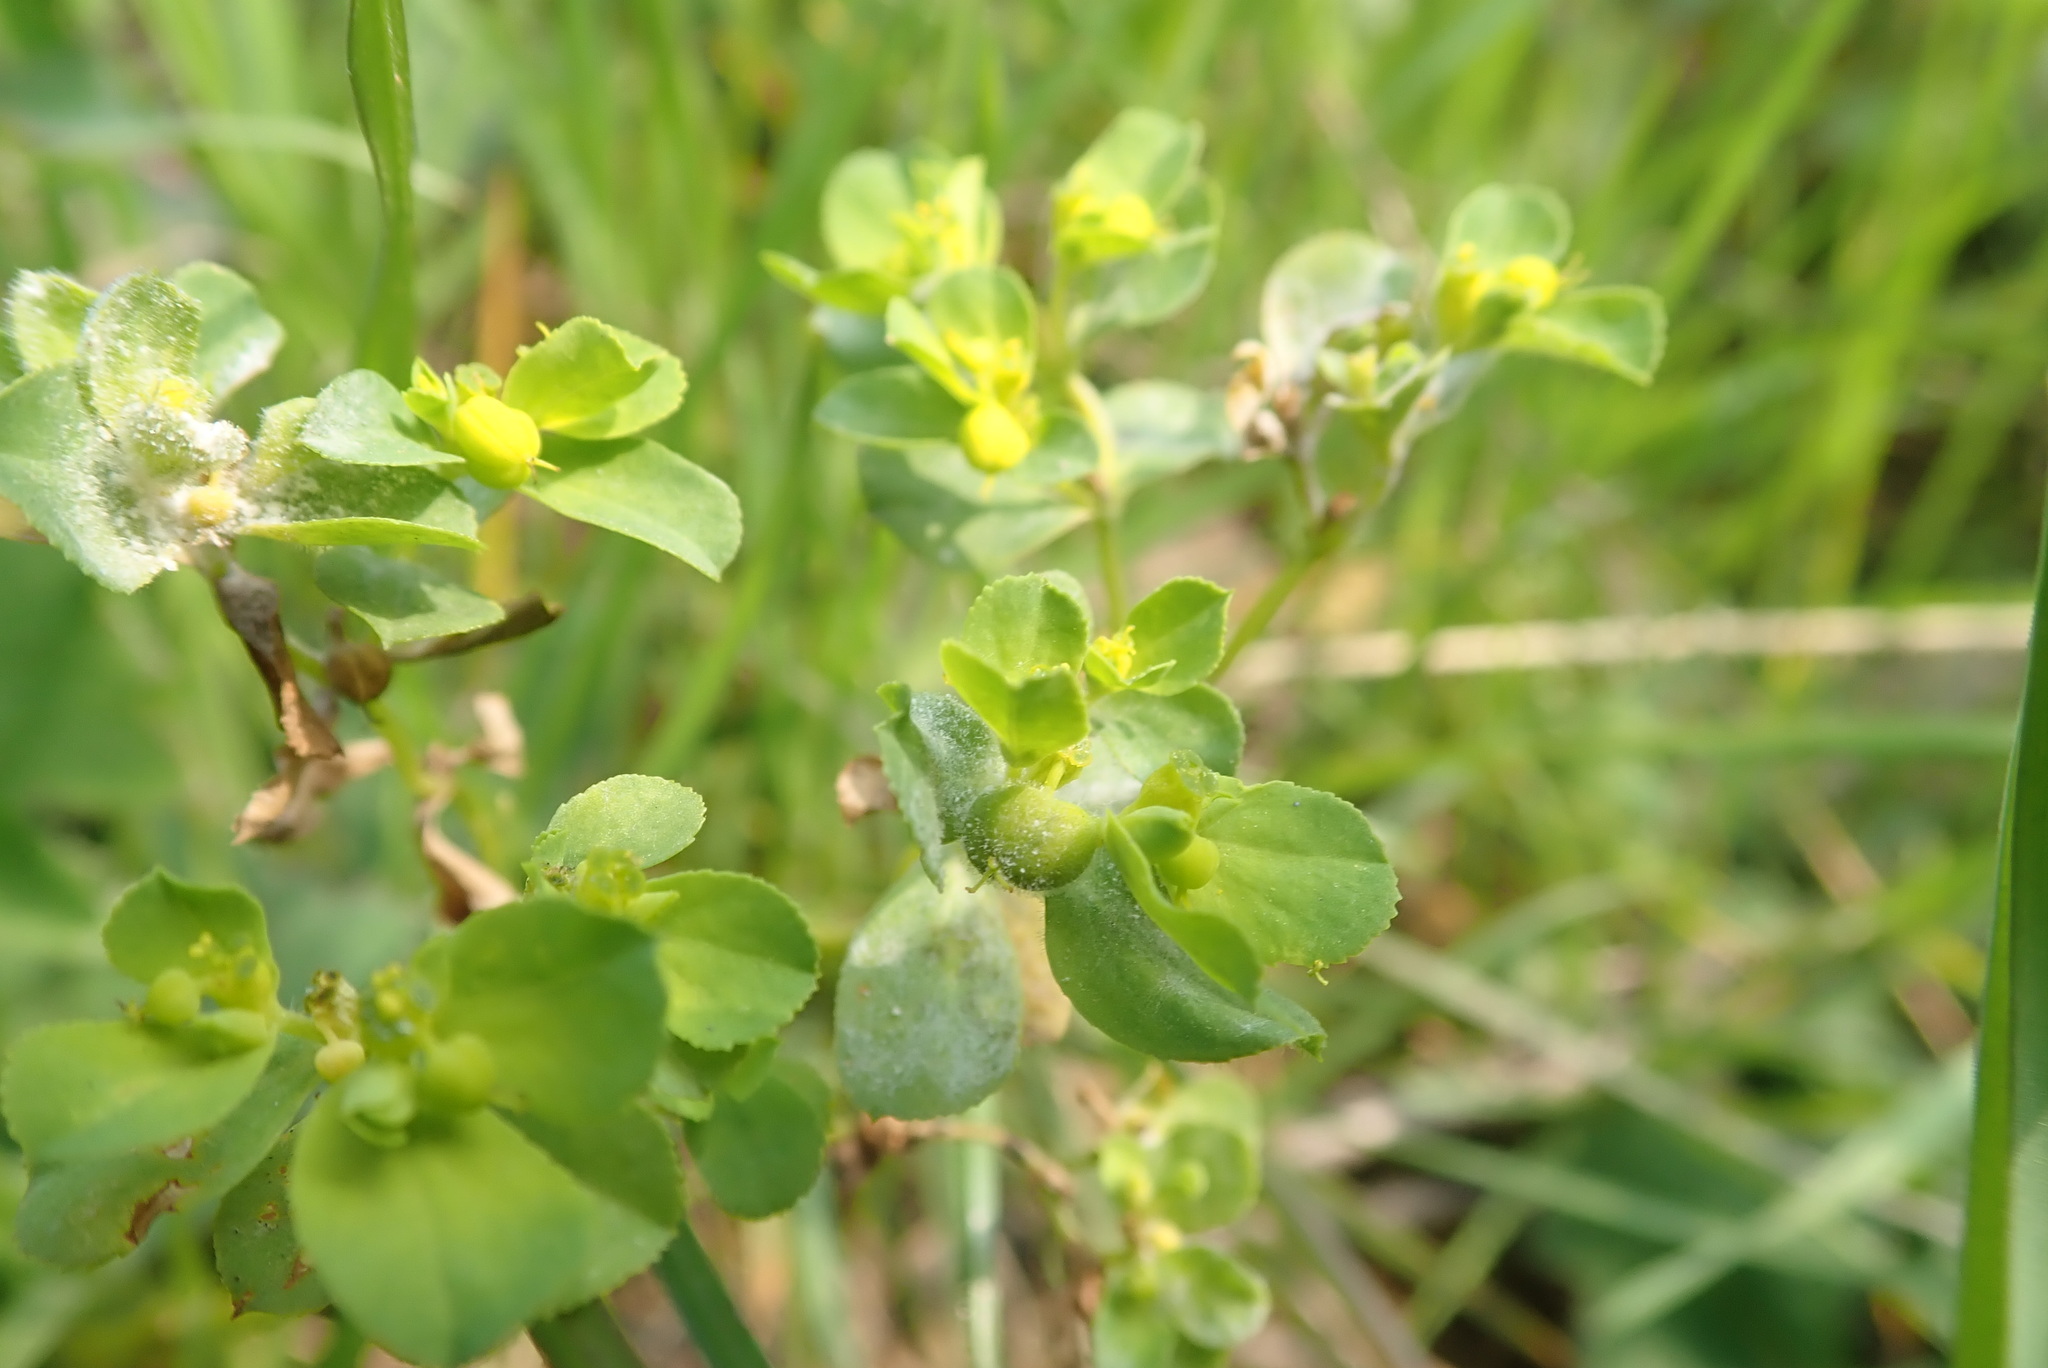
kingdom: Plantae
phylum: Tracheophyta
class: Magnoliopsida
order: Malpighiales
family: Euphorbiaceae
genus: Euphorbia
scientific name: Euphorbia helioscopia
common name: Sun spurge
